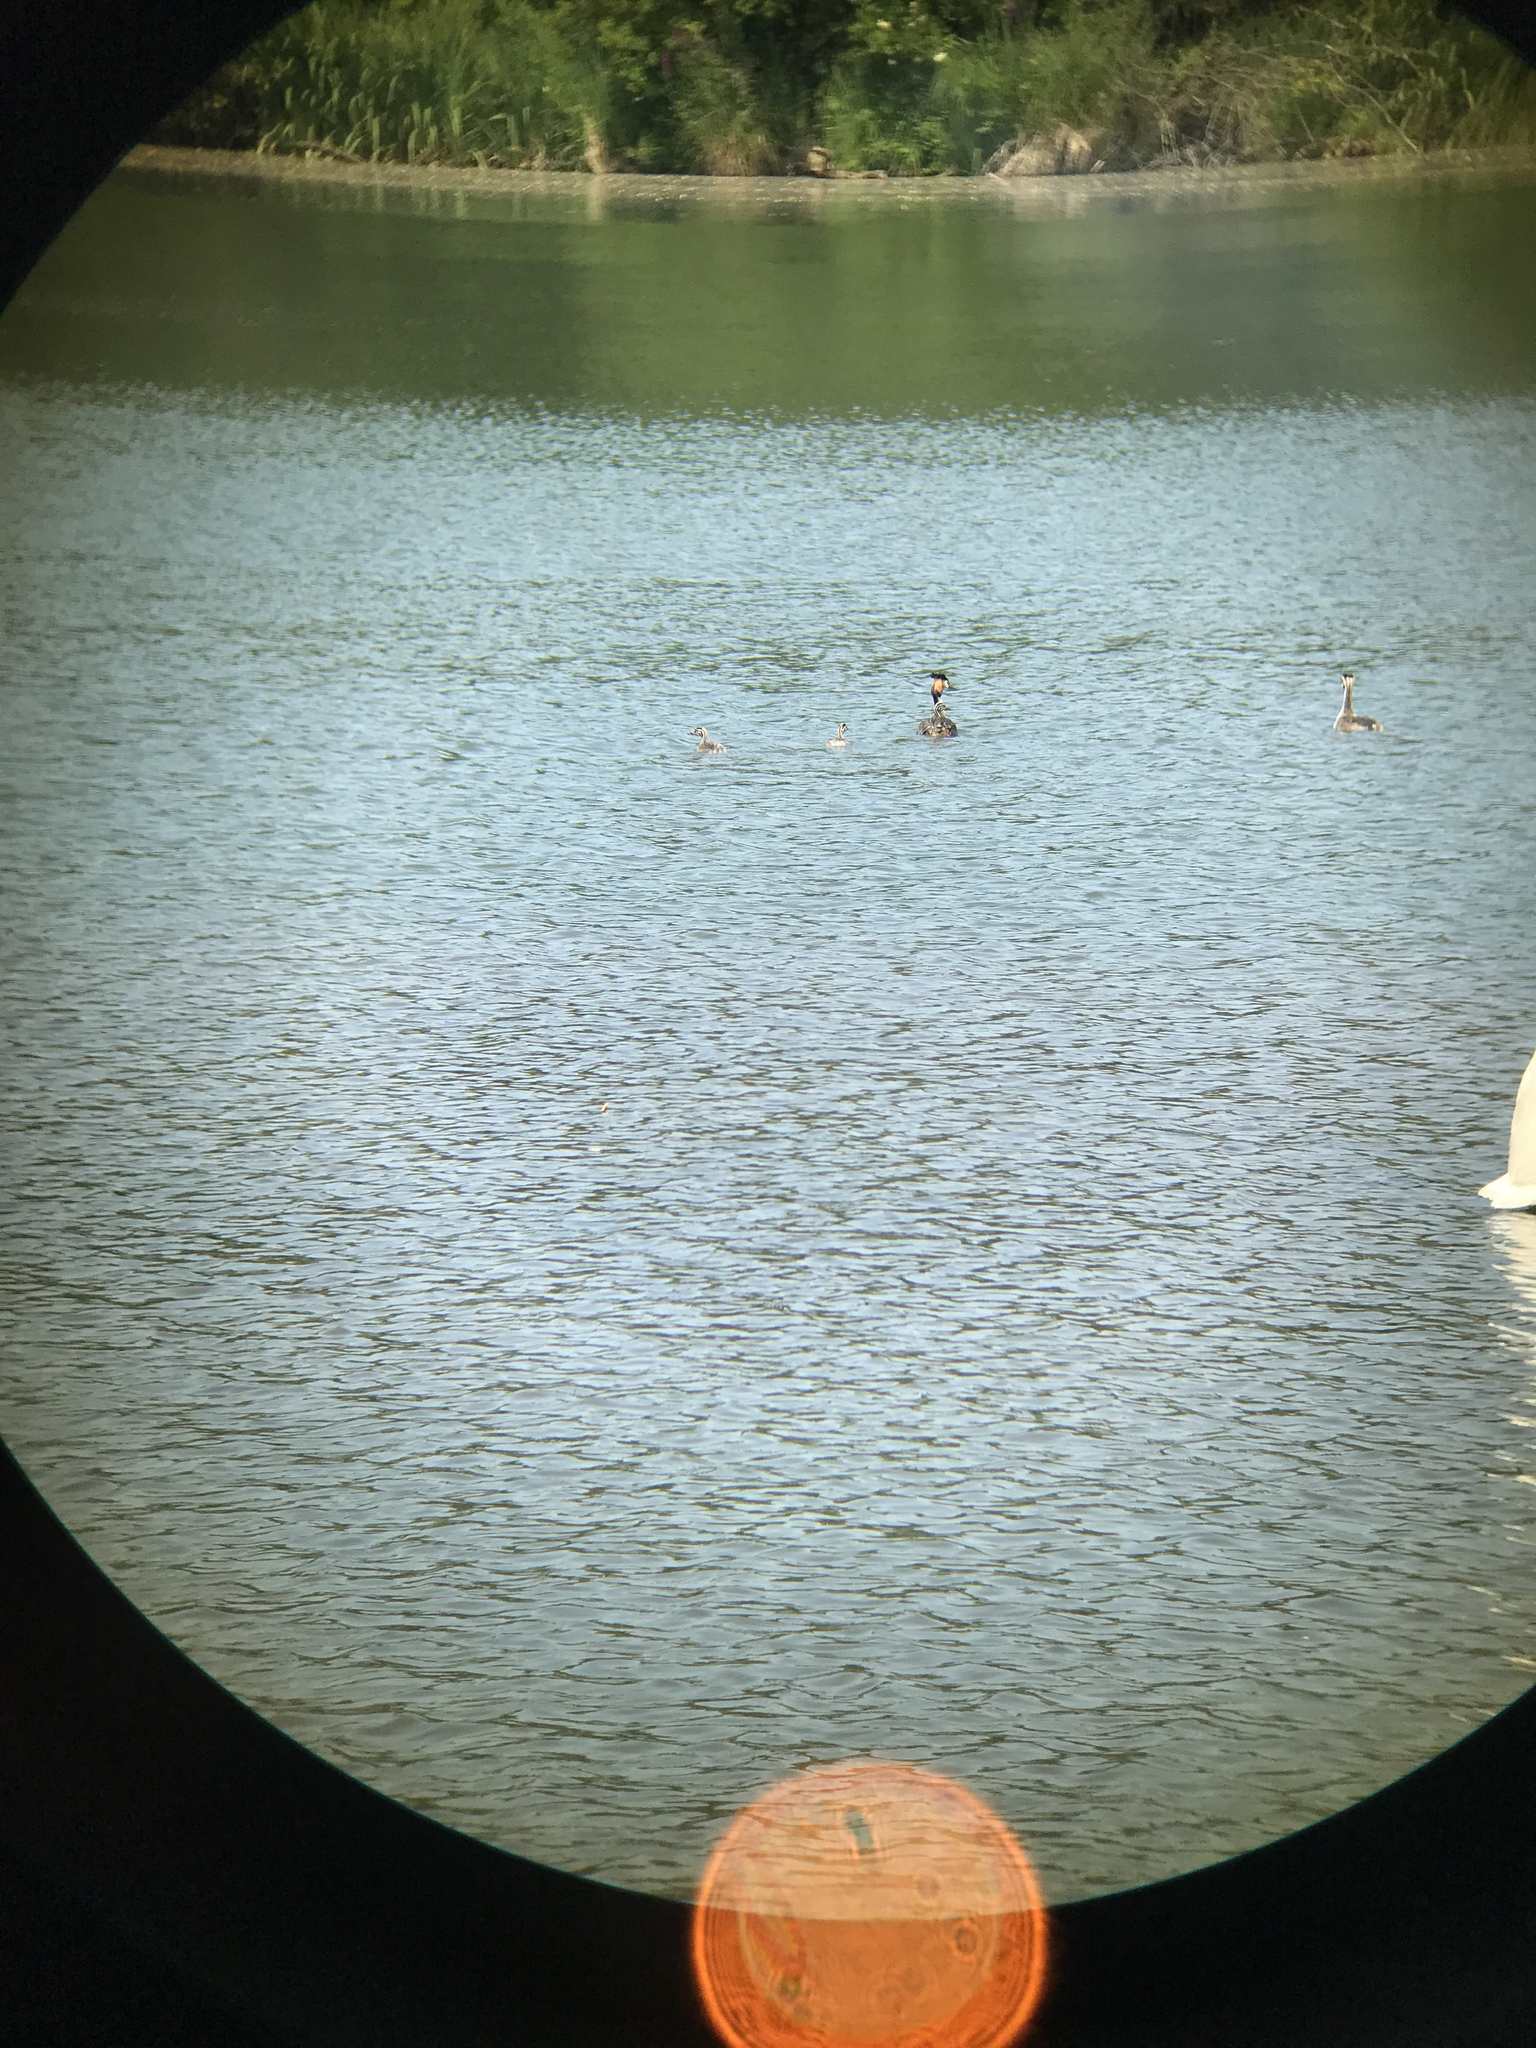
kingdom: Animalia
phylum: Chordata
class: Aves
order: Podicipediformes
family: Podicipedidae
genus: Podiceps
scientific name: Podiceps cristatus
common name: Great crested grebe
